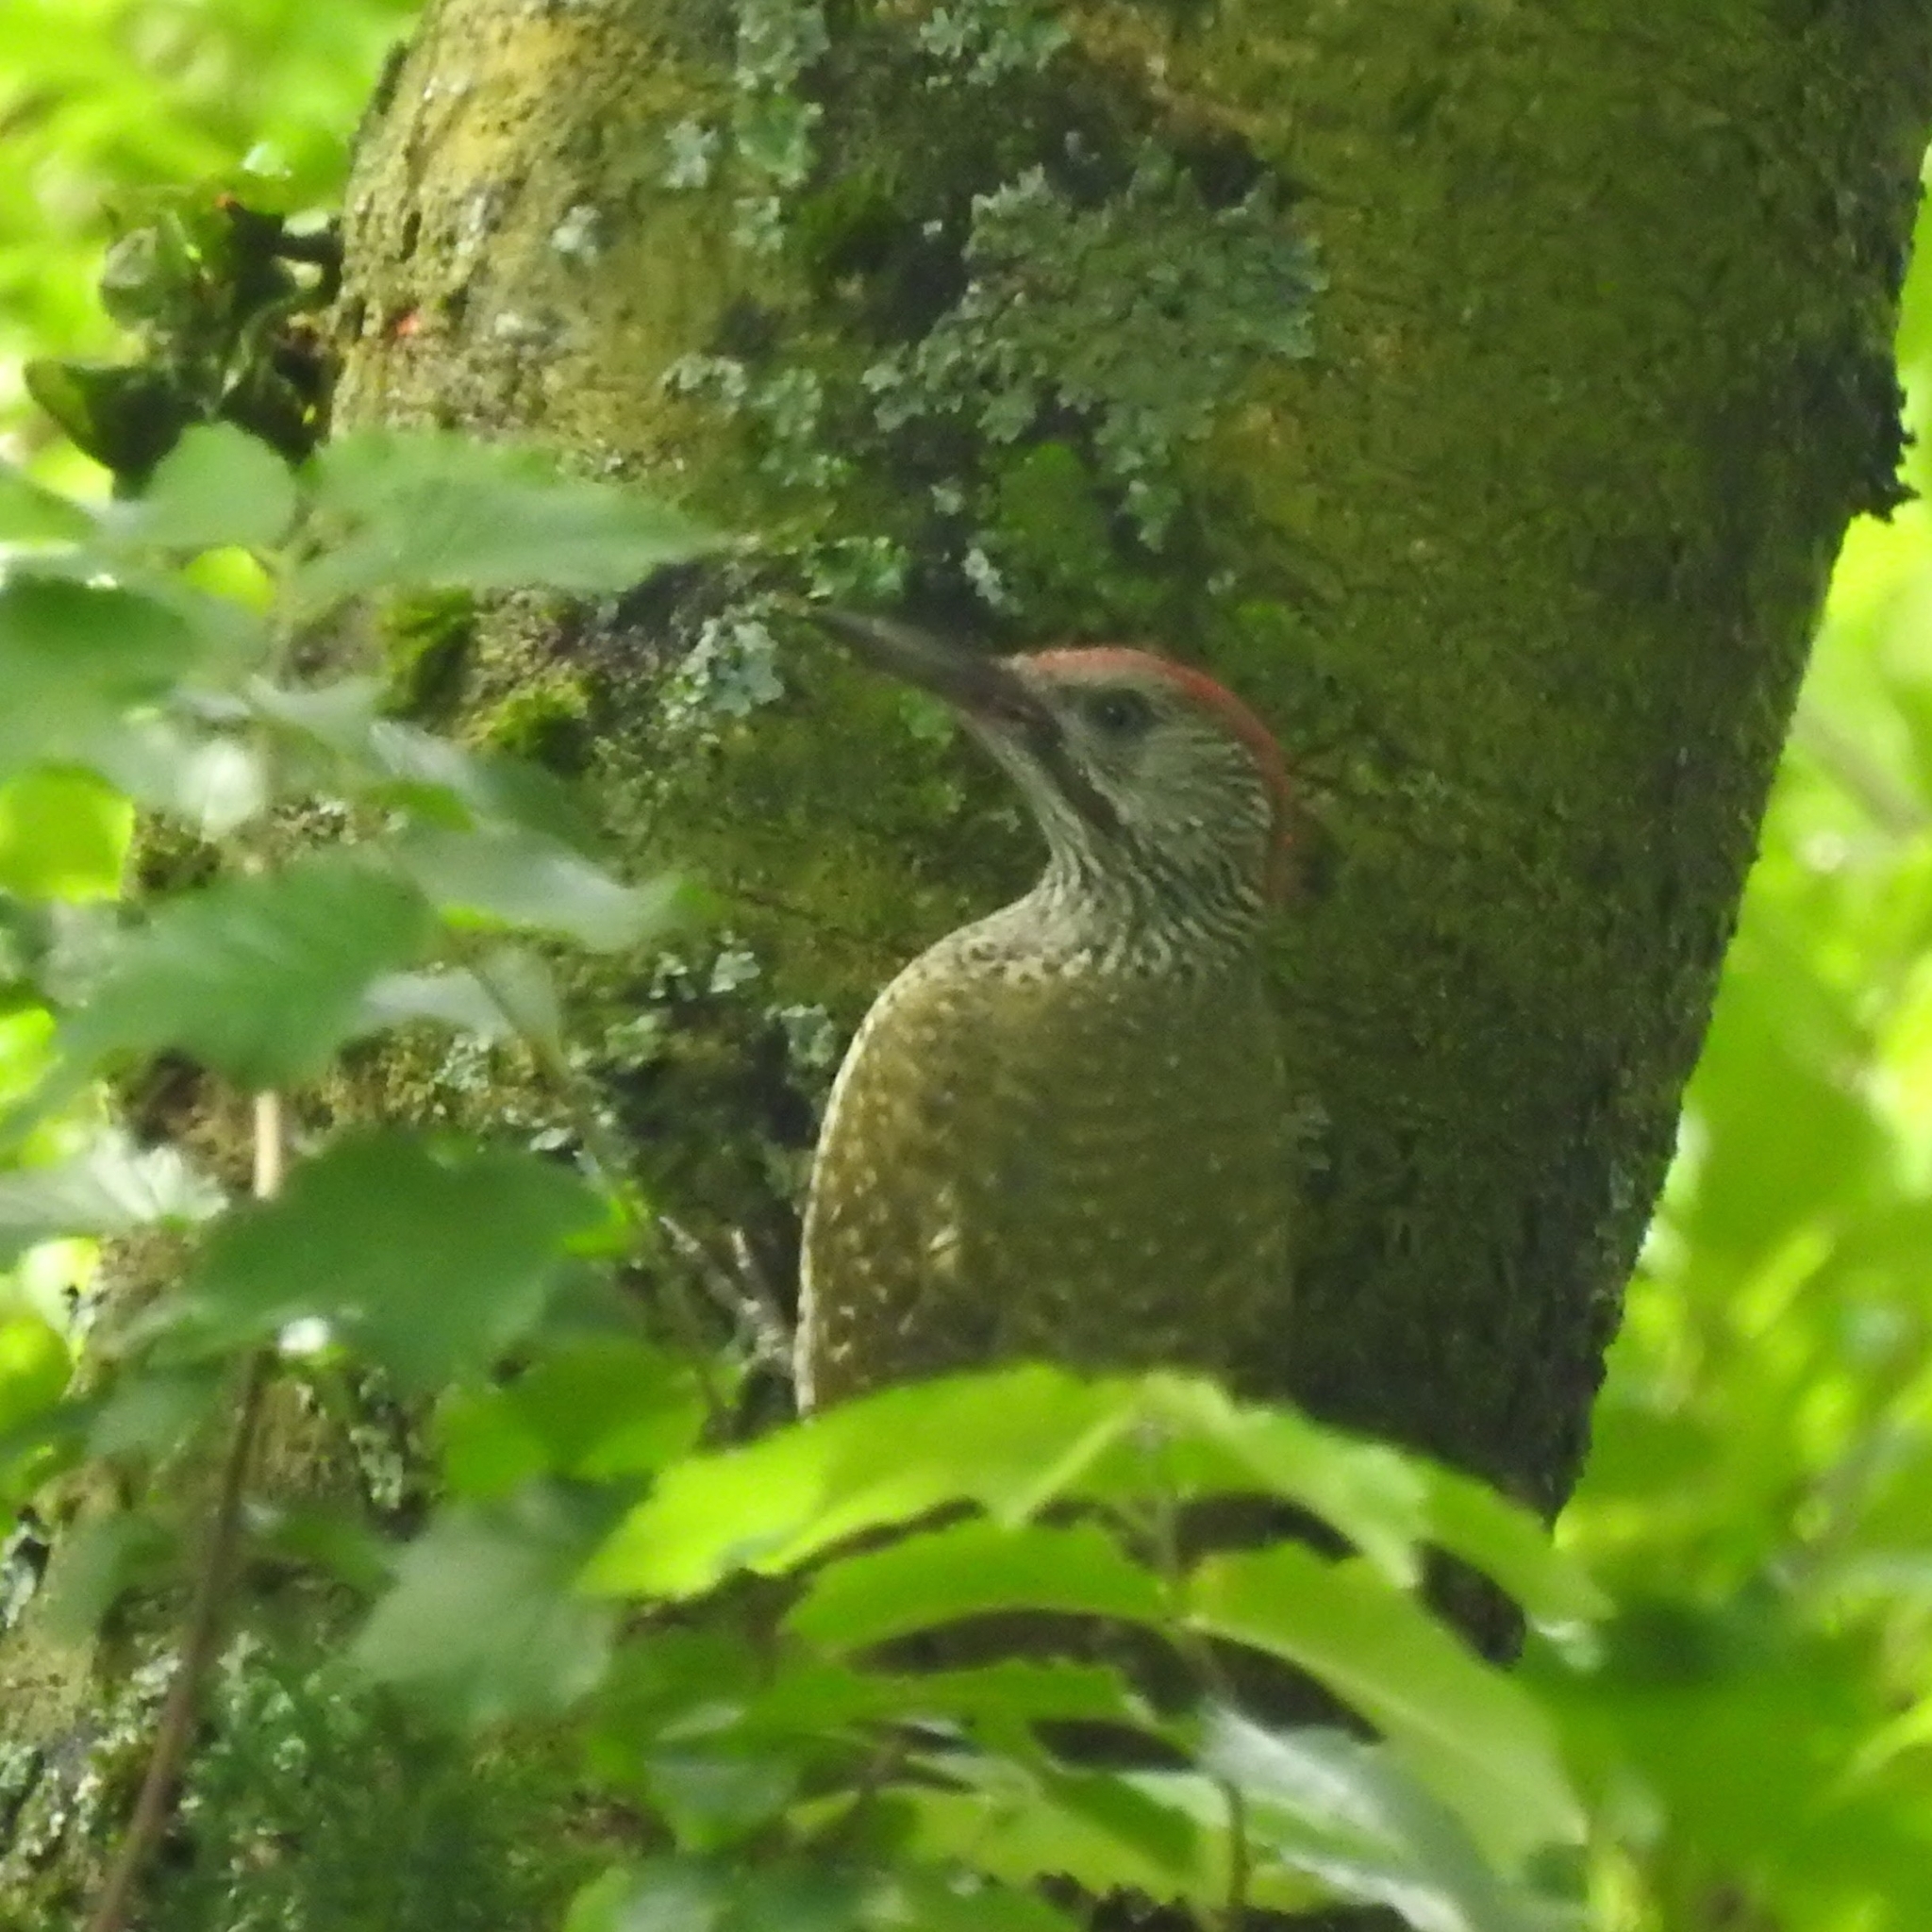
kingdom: Animalia
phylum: Chordata
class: Aves
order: Piciformes
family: Picidae
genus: Picus
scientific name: Picus viridis
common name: European green woodpecker
